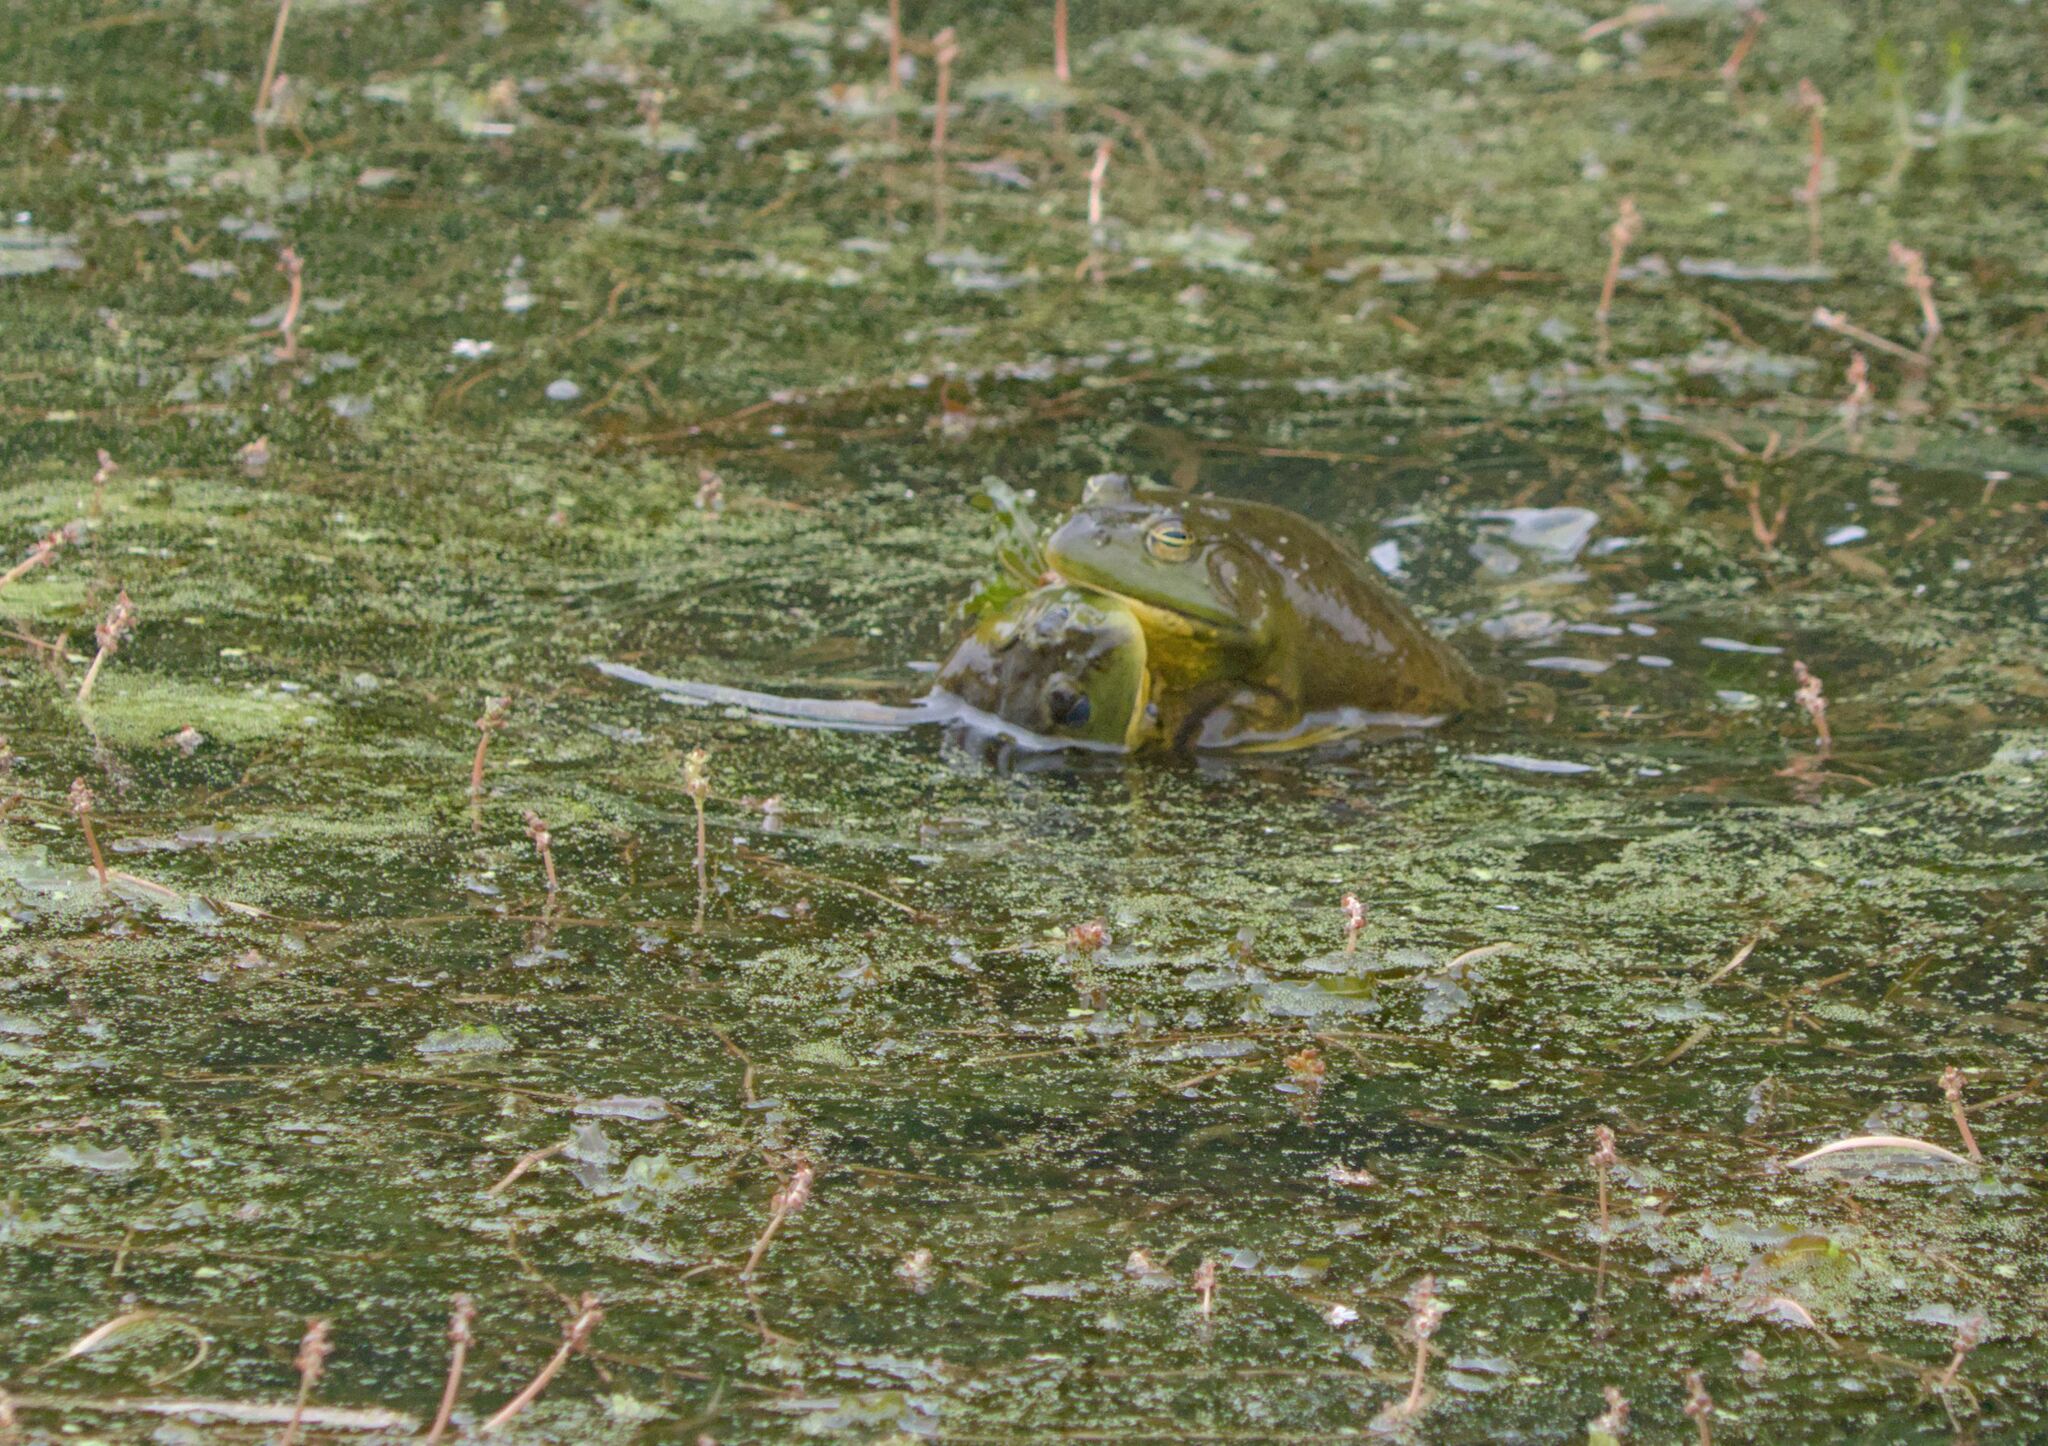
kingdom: Animalia
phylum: Chordata
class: Amphibia
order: Anura
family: Ranidae
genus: Lithobates
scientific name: Lithobates catesbeianus
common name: American bullfrog
